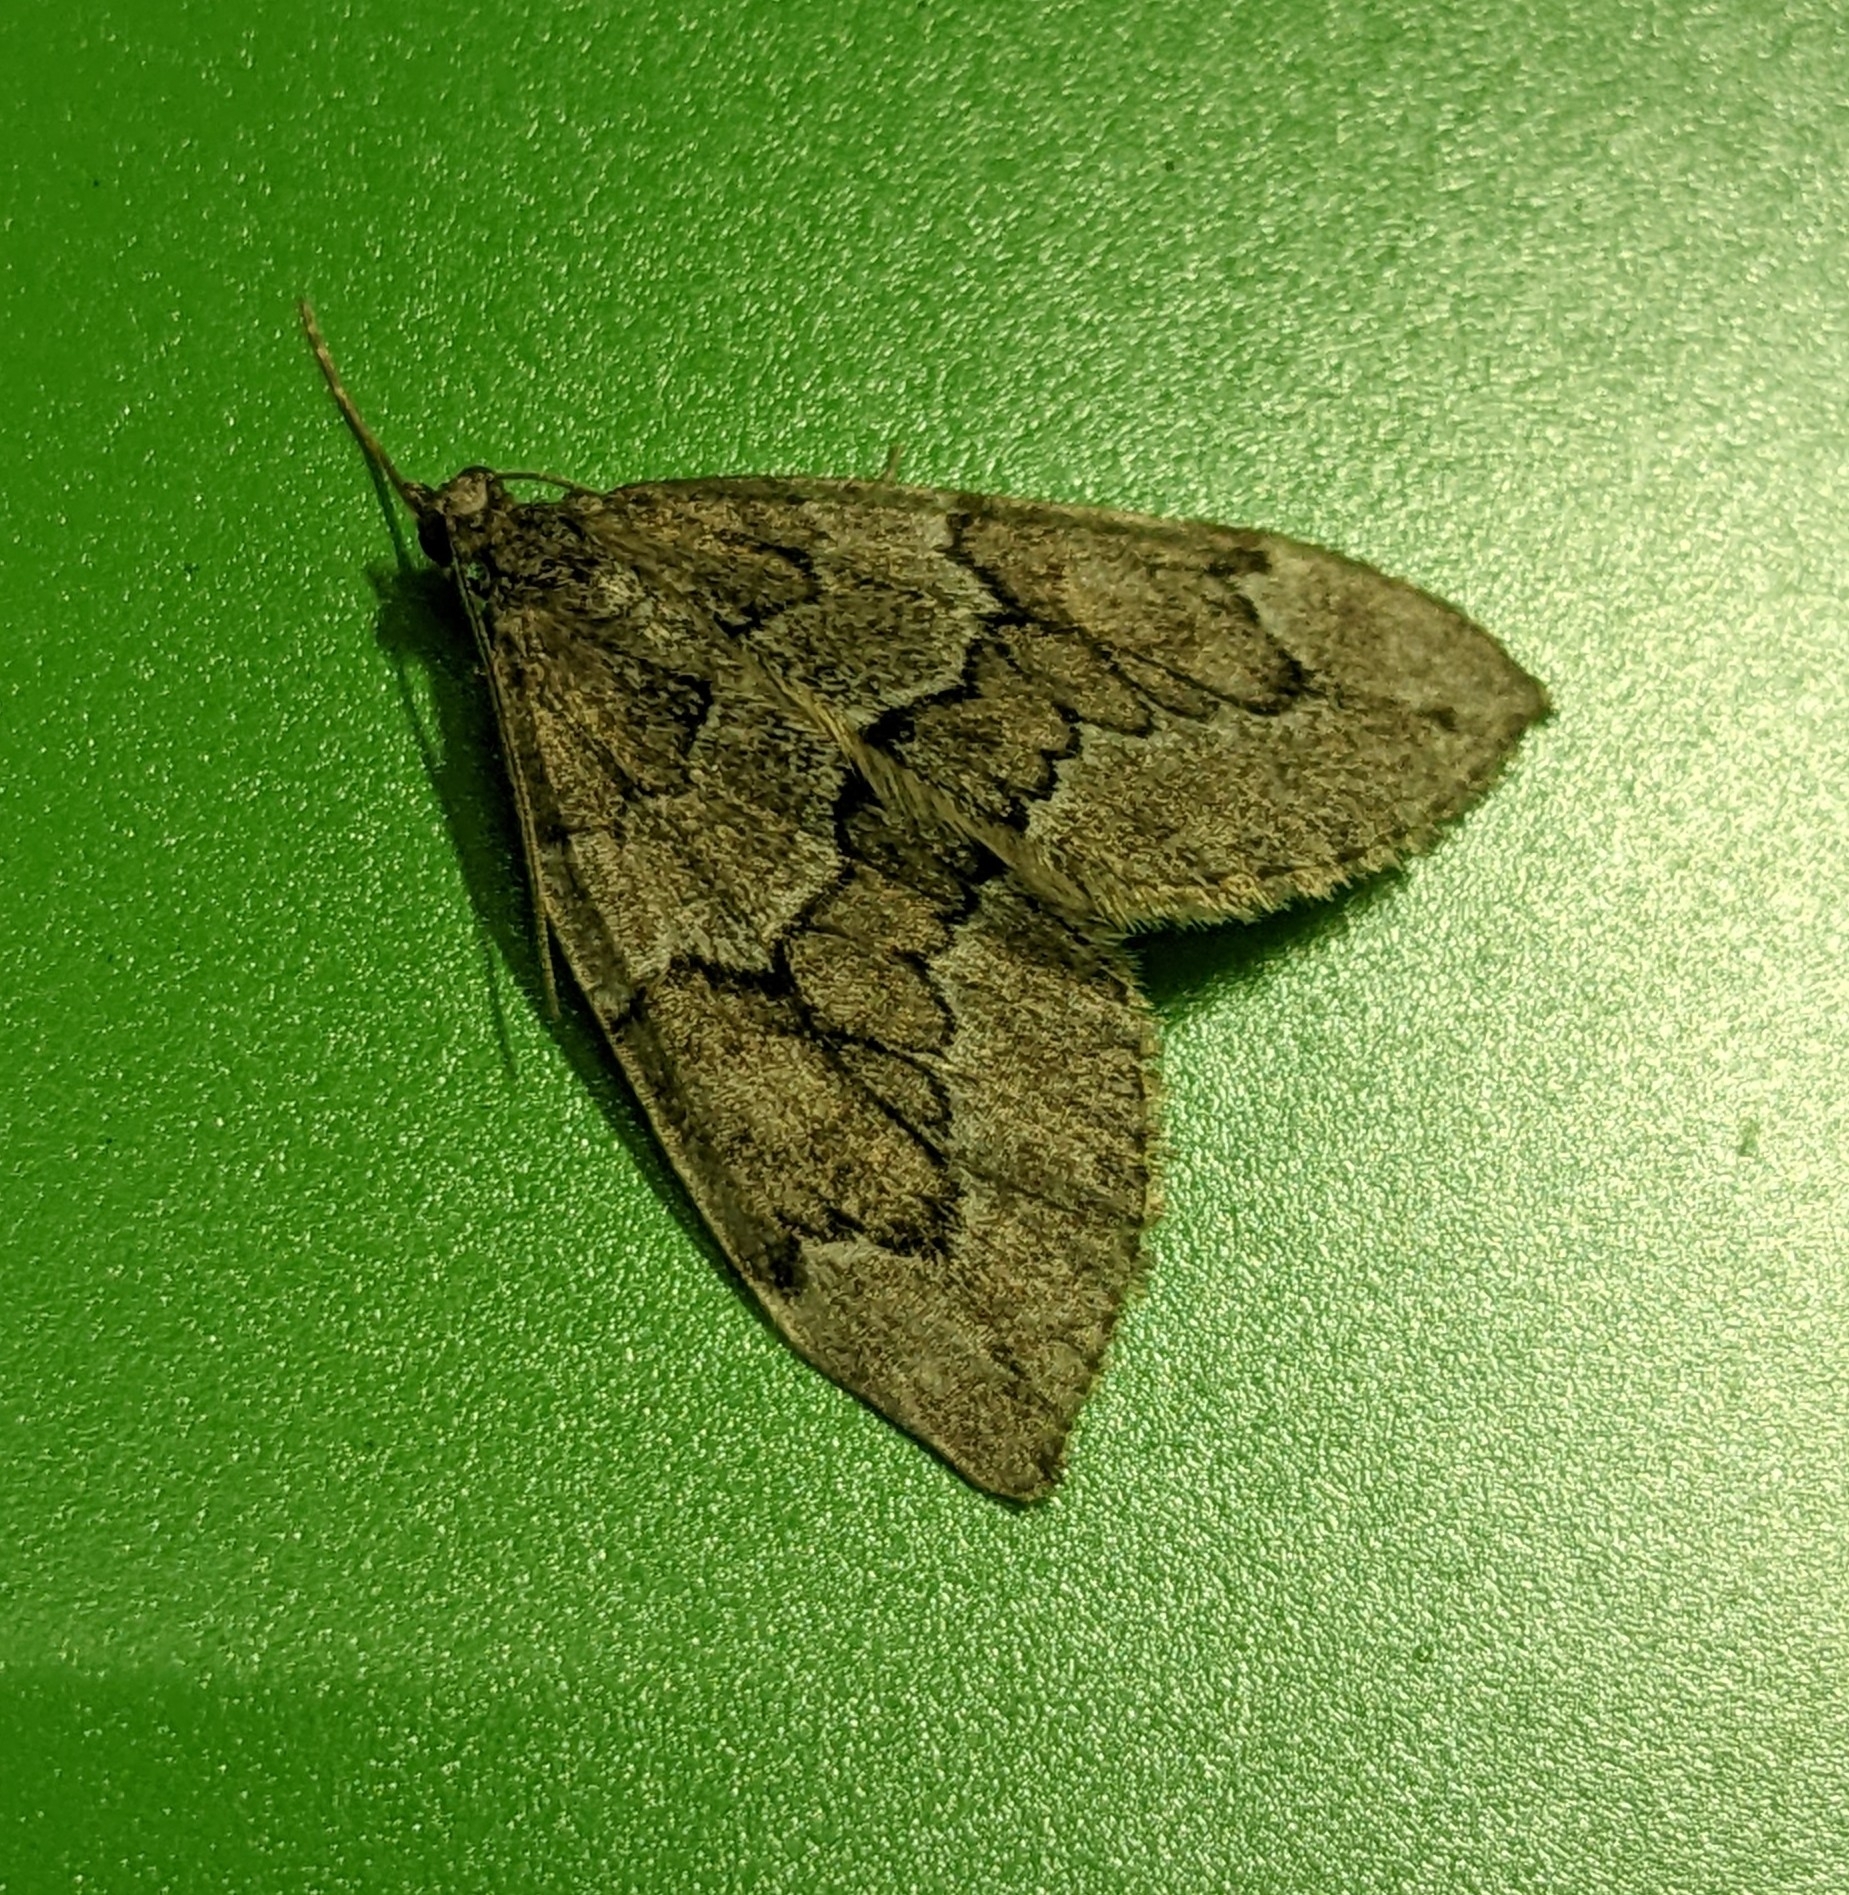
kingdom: Animalia
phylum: Arthropoda
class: Insecta
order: Lepidoptera
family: Geometridae
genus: Thera
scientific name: Thera juniperata
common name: Juniper carpet
